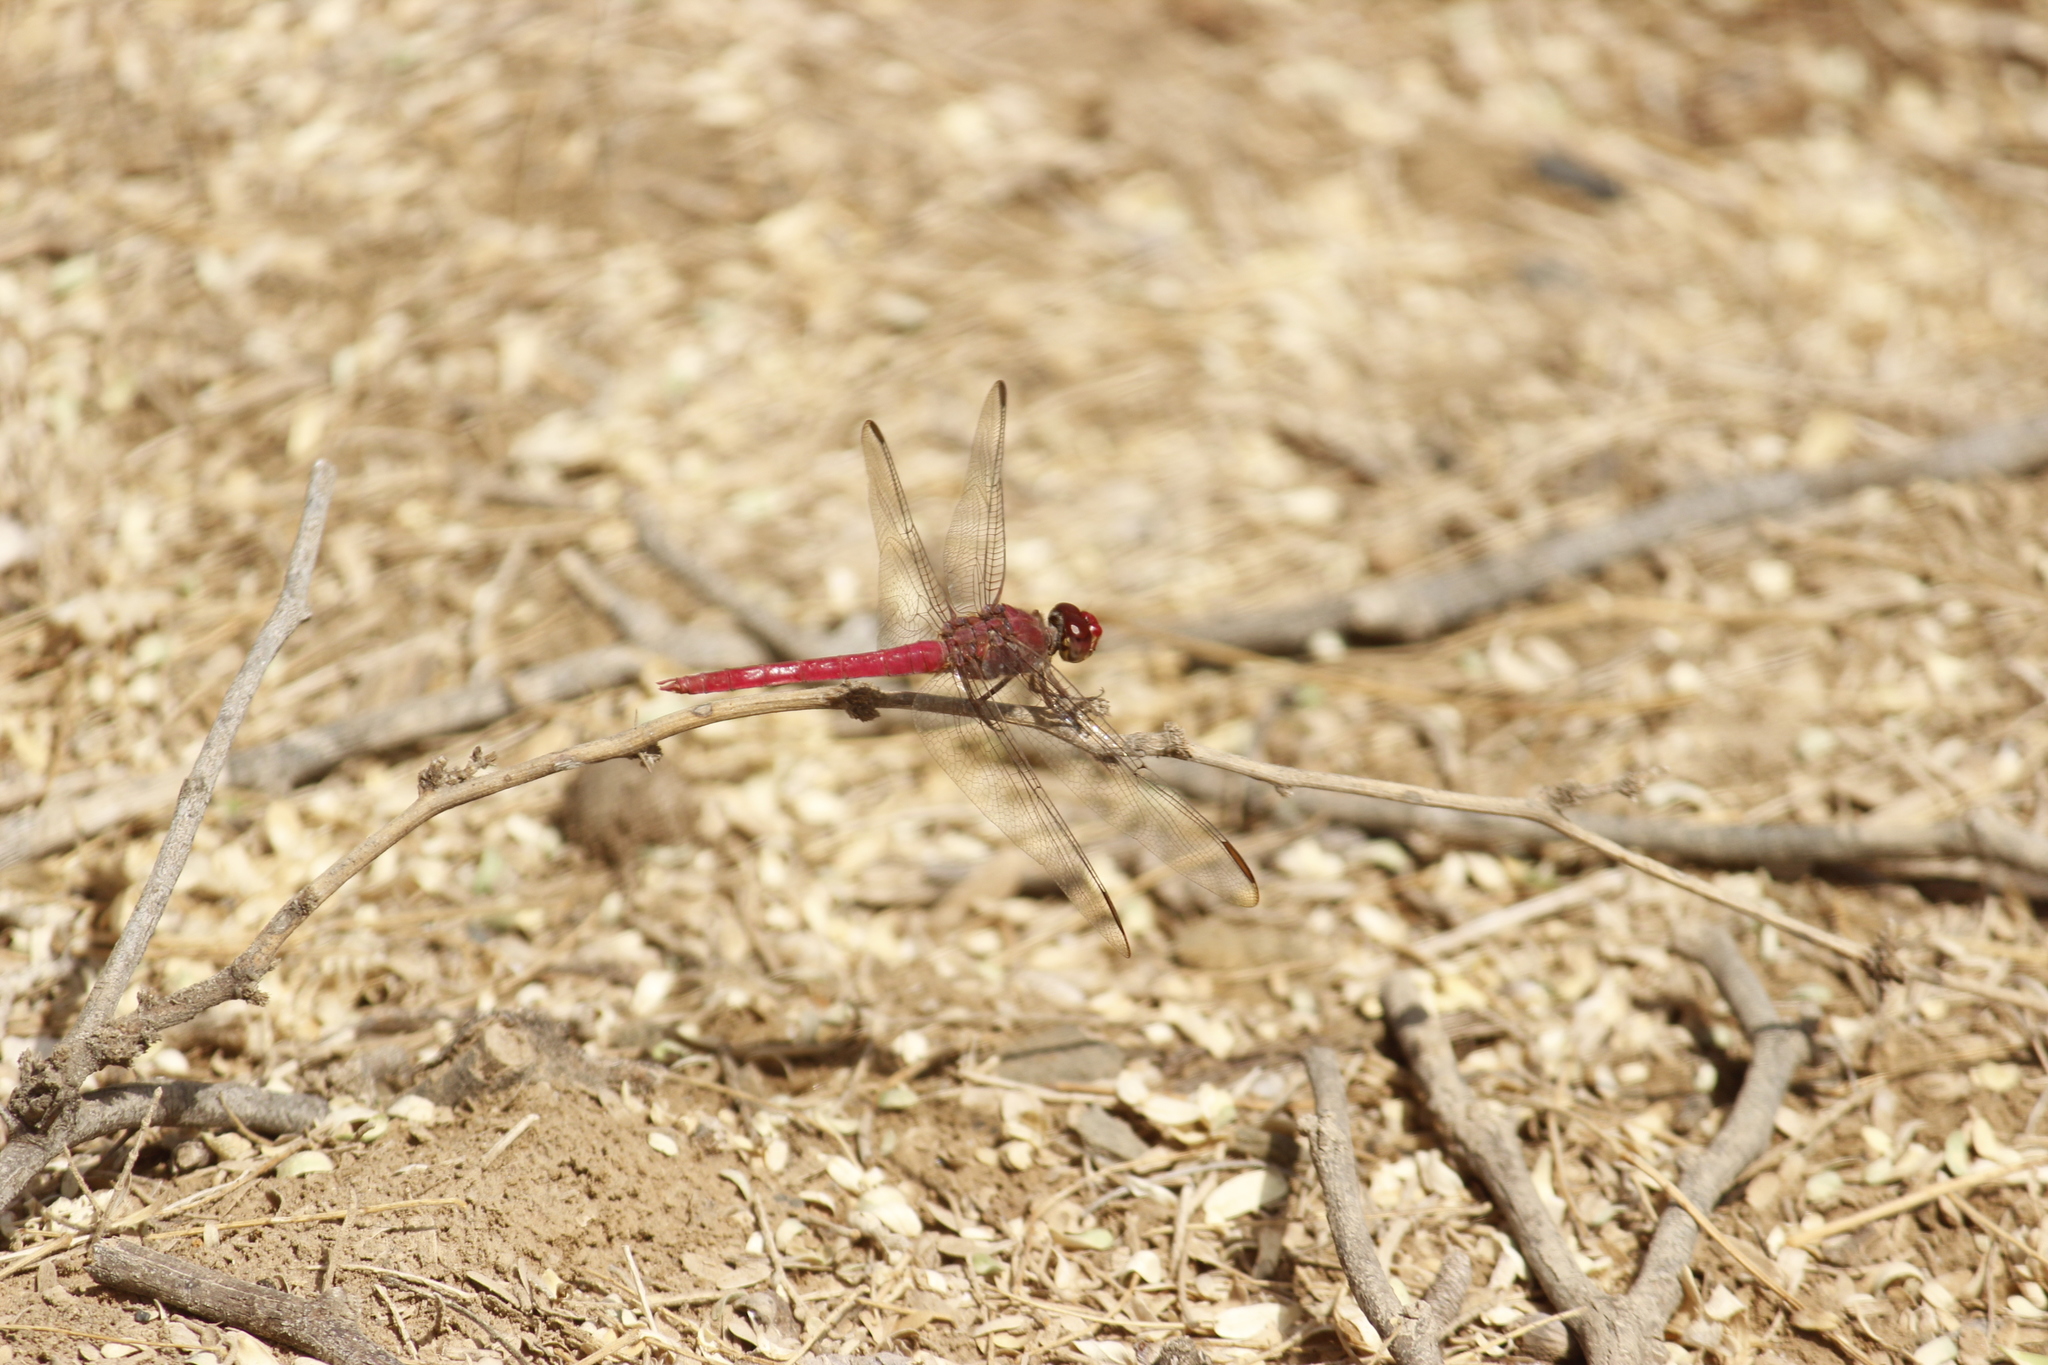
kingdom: Animalia
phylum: Arthropoda
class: Insecta
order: Odonata
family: Libellulidae
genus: Orthemis
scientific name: Orthemis discolor
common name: Carmine skimmer
